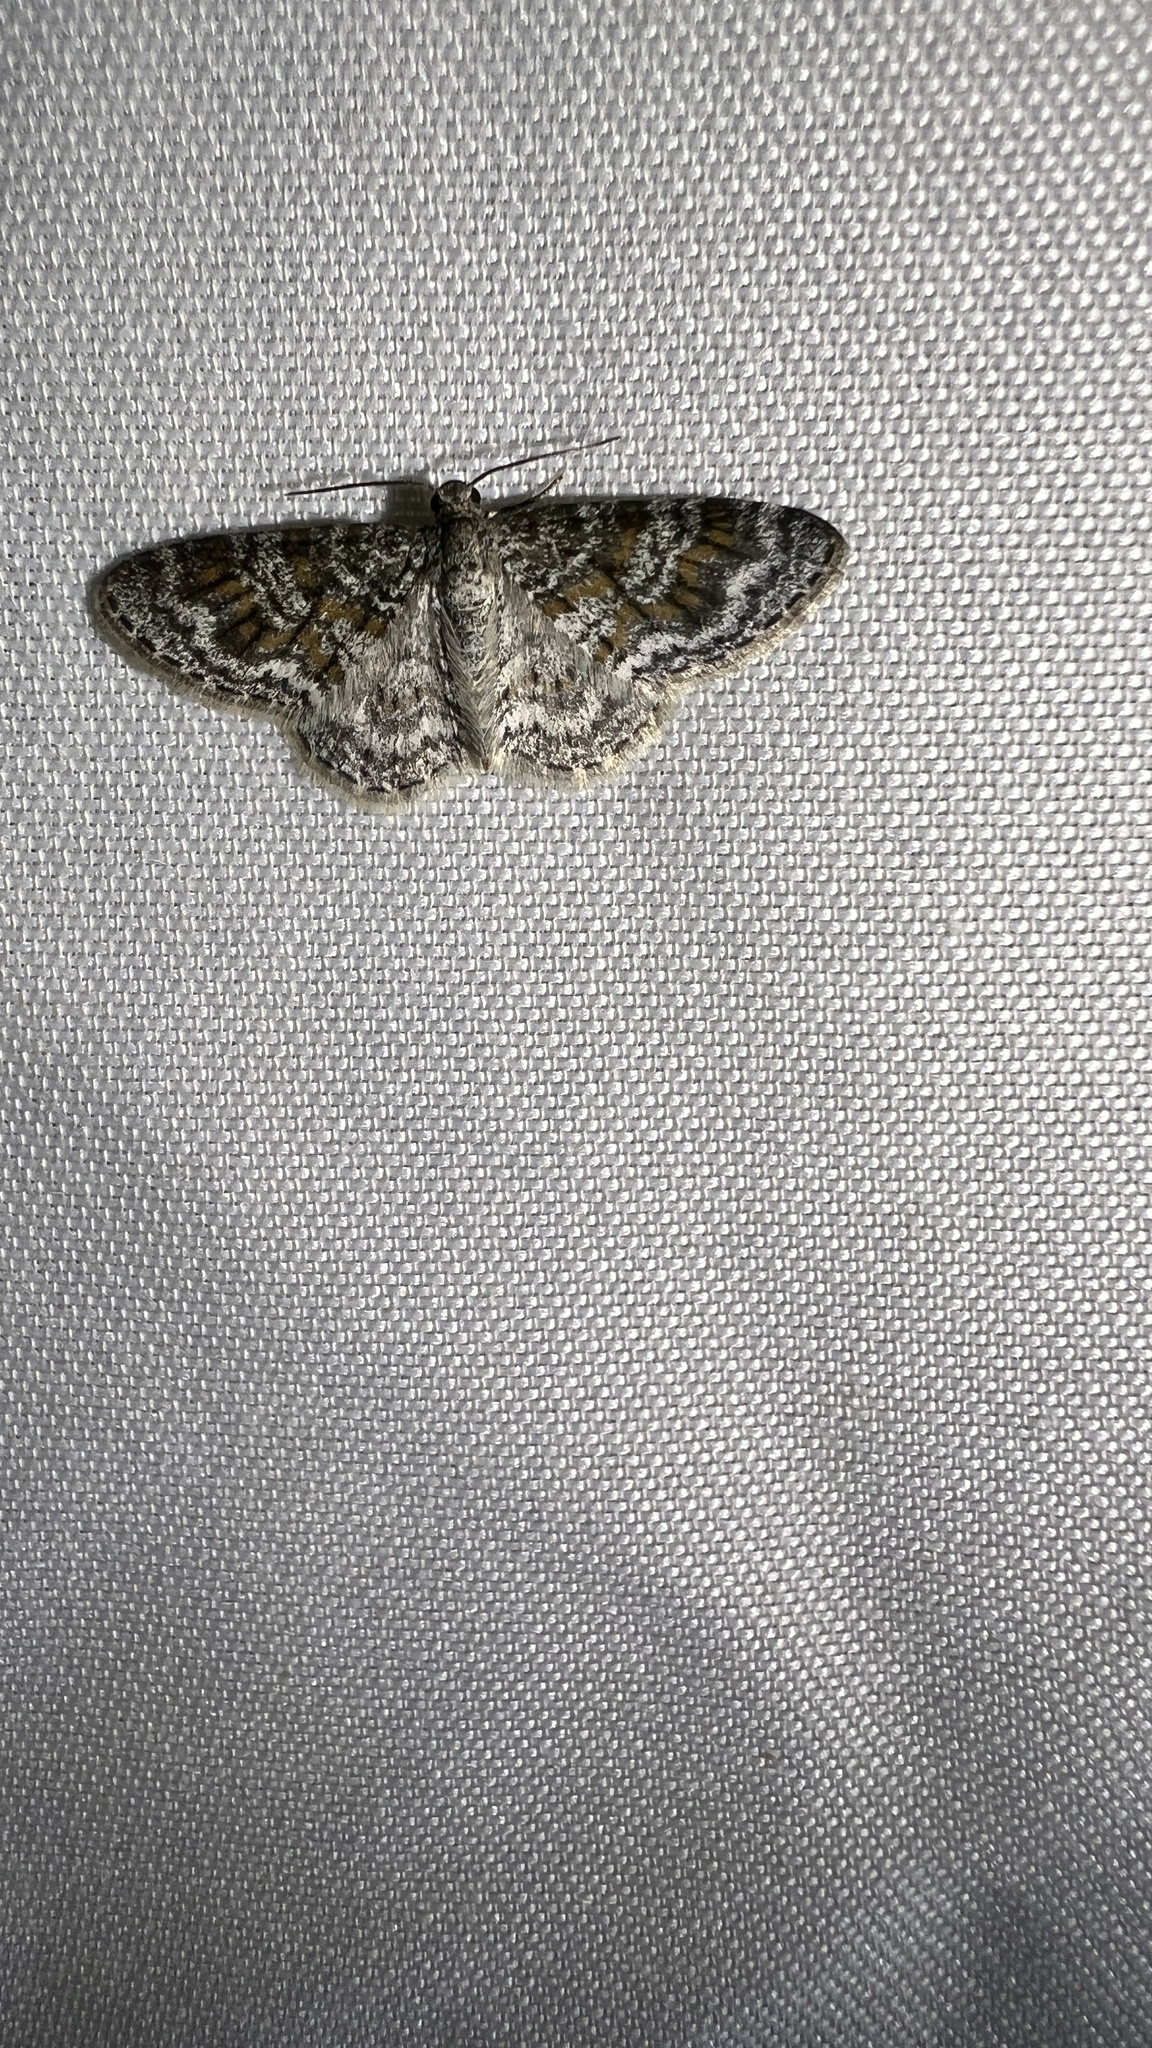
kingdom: Animalia
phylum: Arthropoda
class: Insecta
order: Lepidoptera
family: Geometridae
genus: Hydrelia
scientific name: Hydrelia inornata
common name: Unadorned carpet moth
